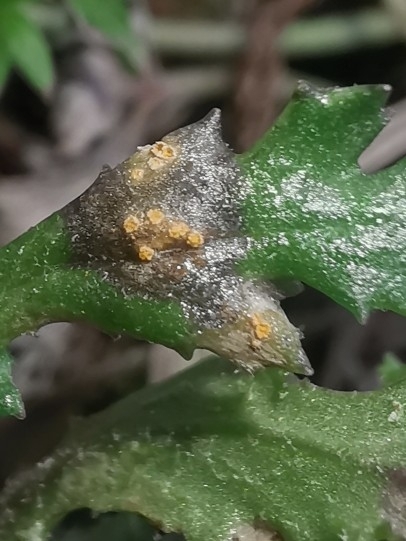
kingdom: Fungi
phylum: Basidiomycota
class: Pucciniomycetes
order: Pucciniales
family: Pucciniaceae
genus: Puccinia
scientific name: Puccinia lagenophorae
